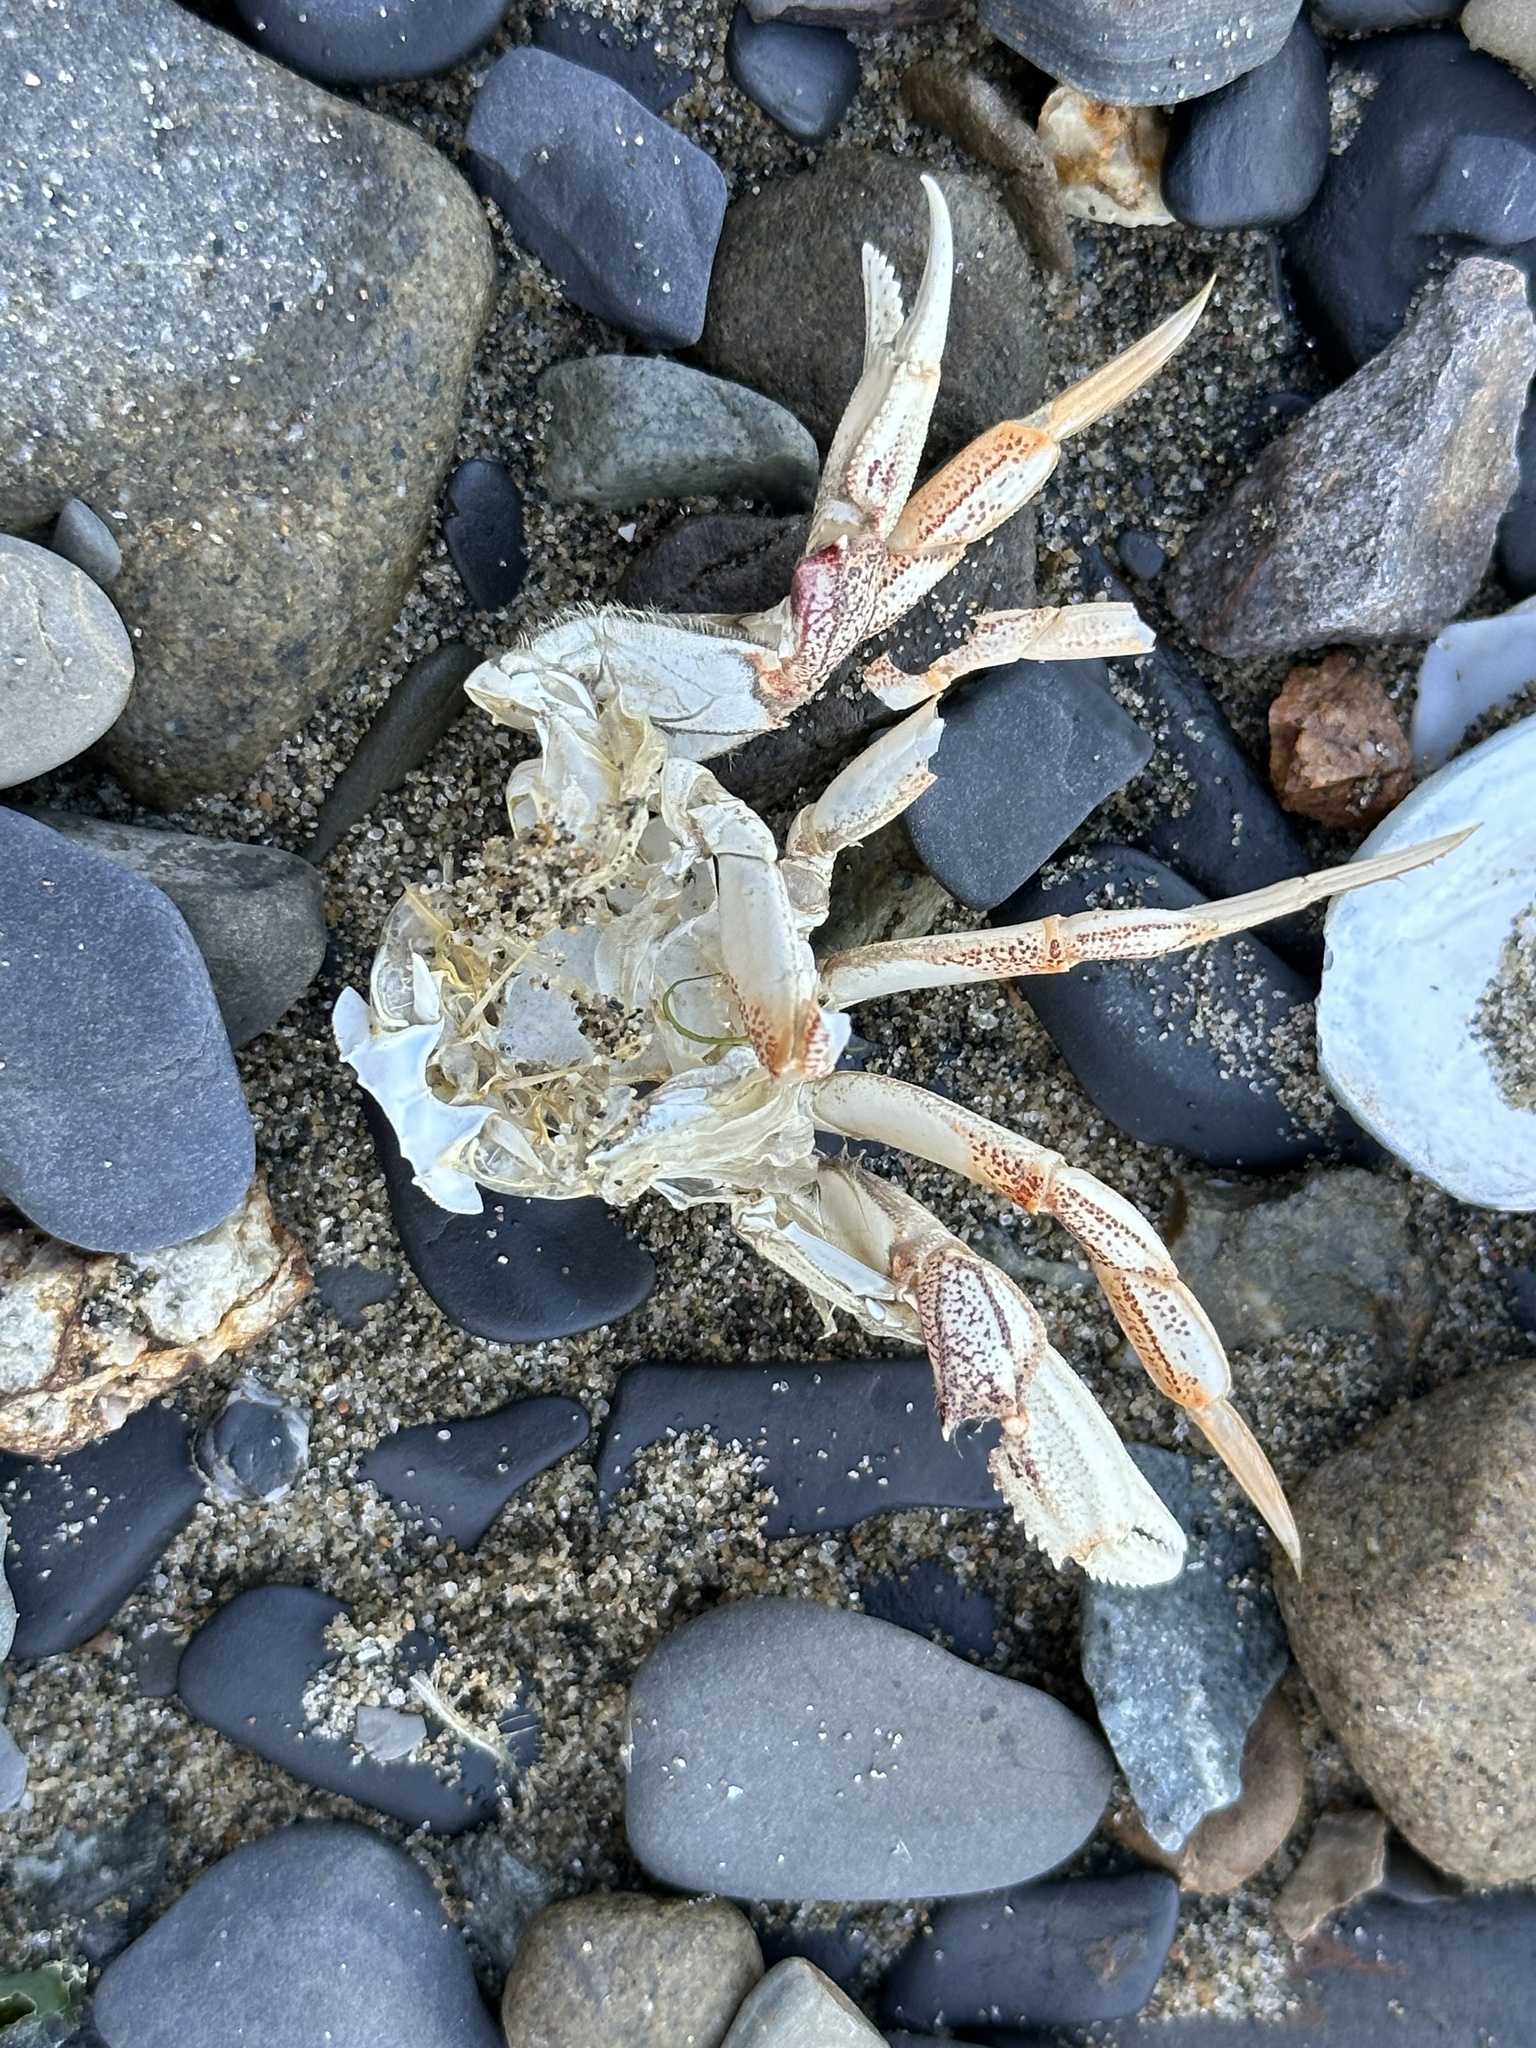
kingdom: Animalia
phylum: Arthropoda
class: Malacostraca
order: Decapoda
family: Cancridae
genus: Metacarcinus
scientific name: Metacarcinus magister
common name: Californian crab
